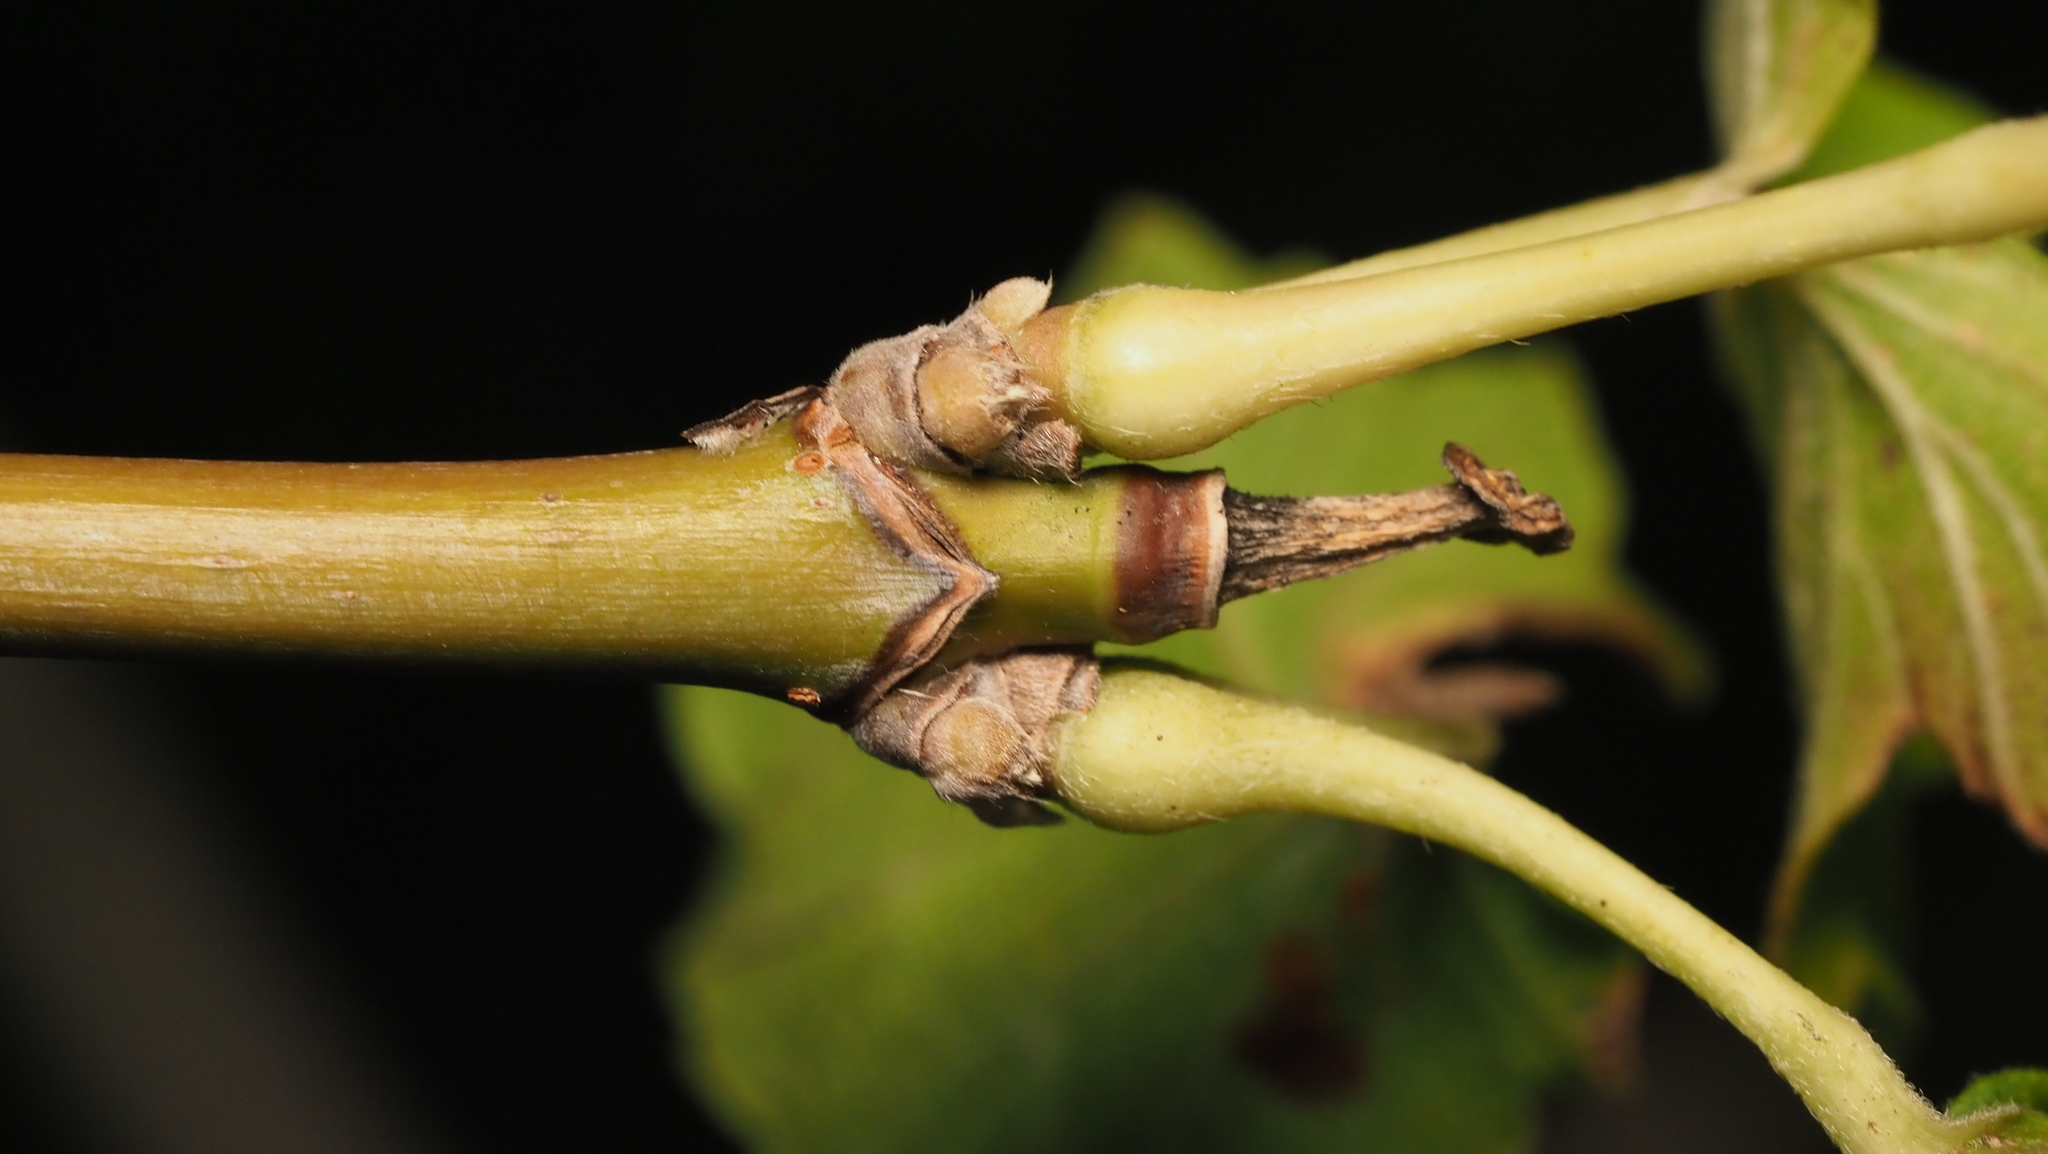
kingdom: Plantae
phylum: Tracheophyta
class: Magnoliopsida
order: Sapindales
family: Sapindaceae
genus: Acer
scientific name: Acer negundo
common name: Ashleaf maple
